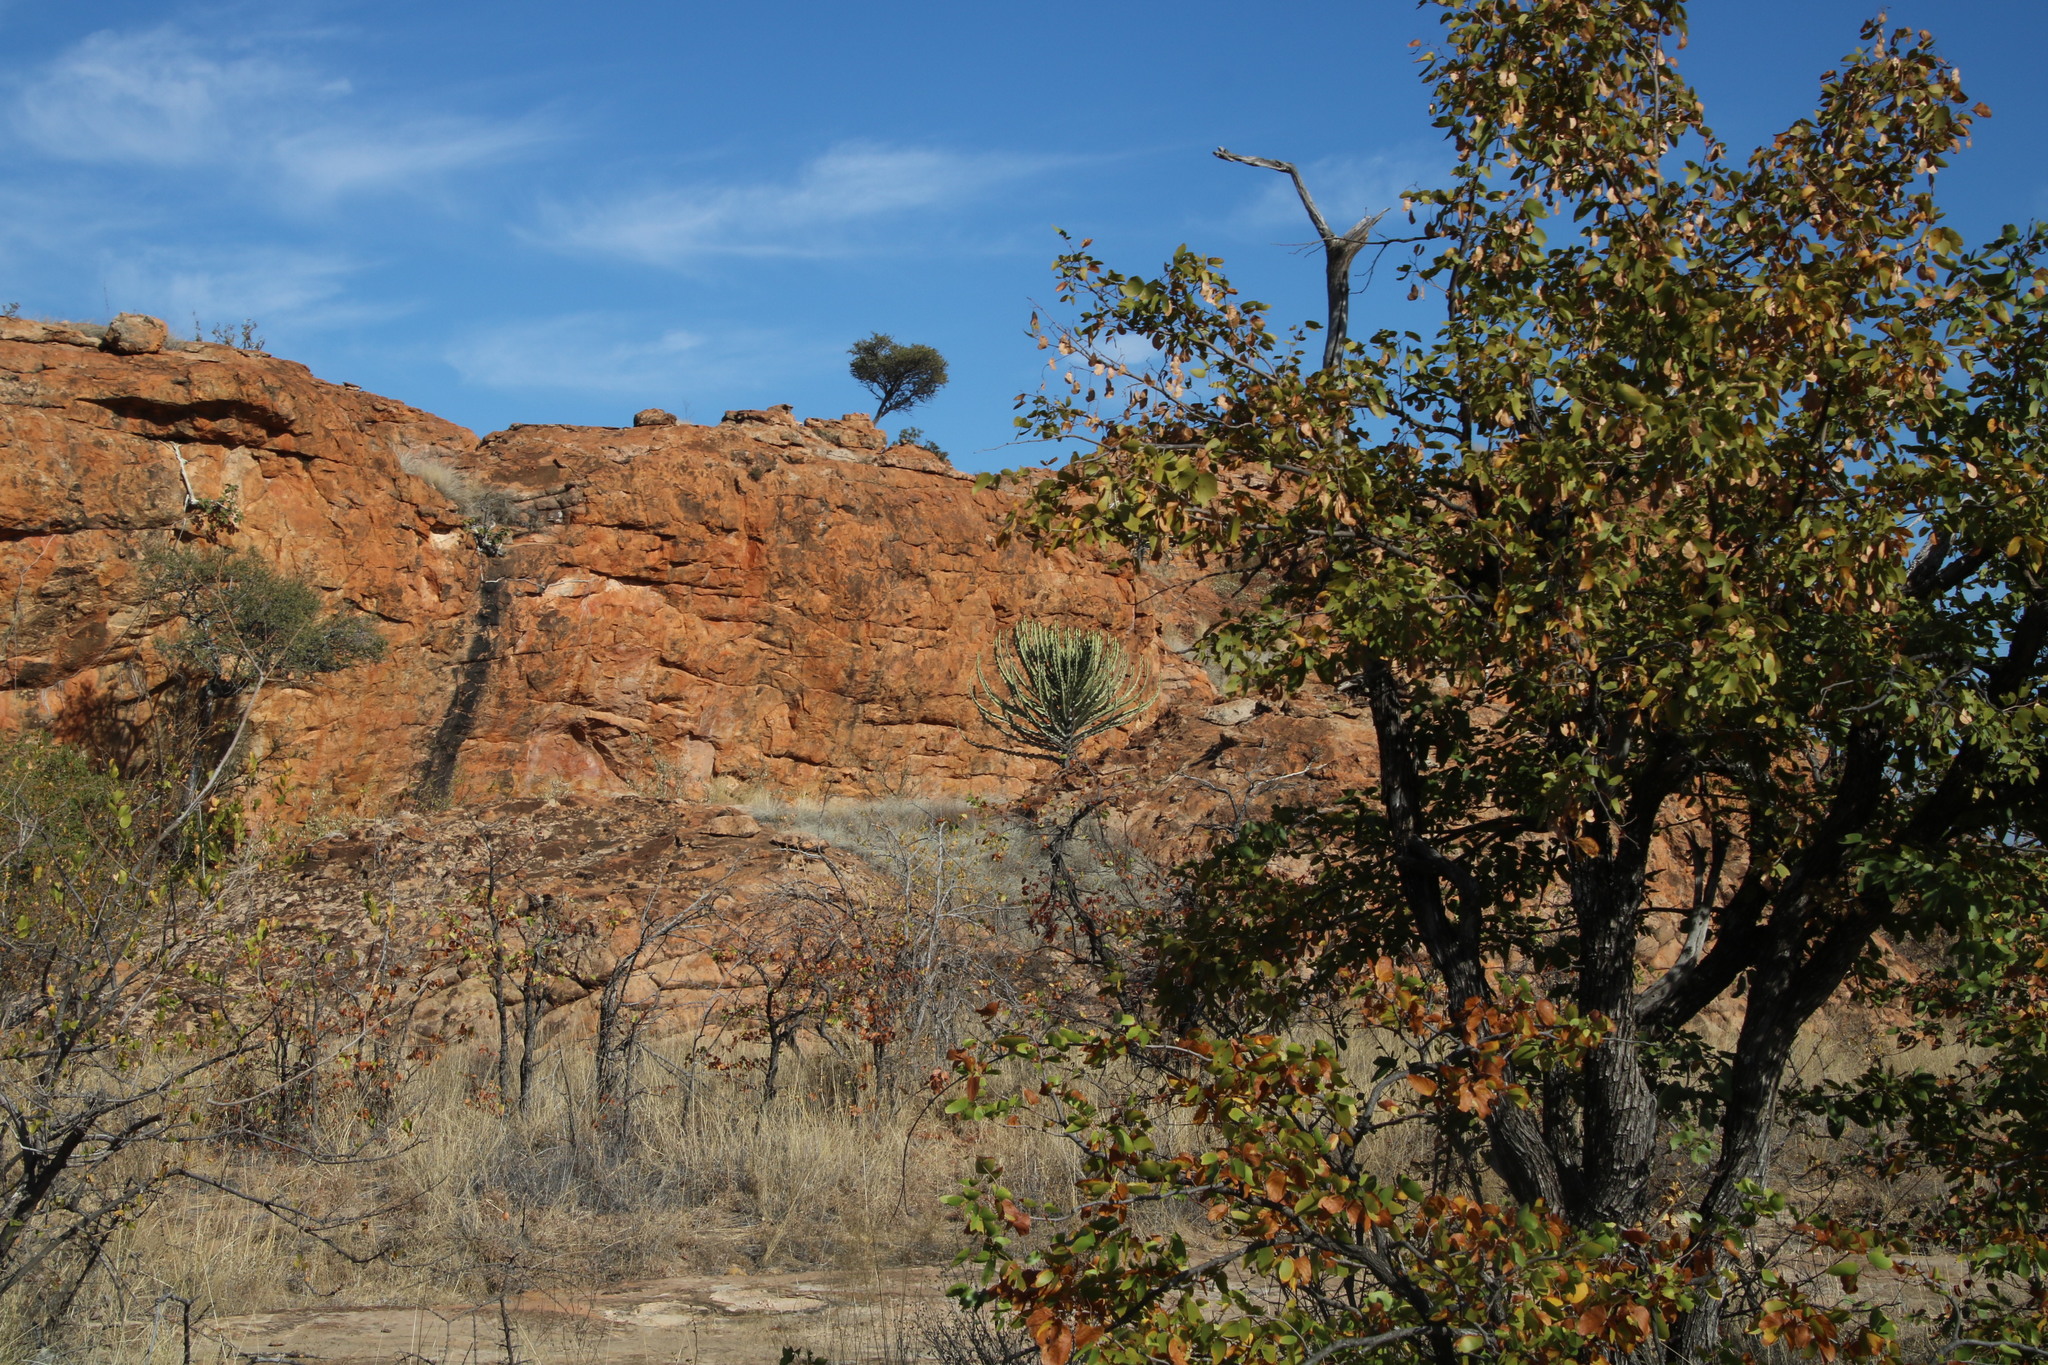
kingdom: Plantae
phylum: Tracheophyta
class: Magnoliopsida
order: Malpighiales
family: Euphorbiaceae
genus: Euphorbia
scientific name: Euphorbia cooperi
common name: Candelabra tree
